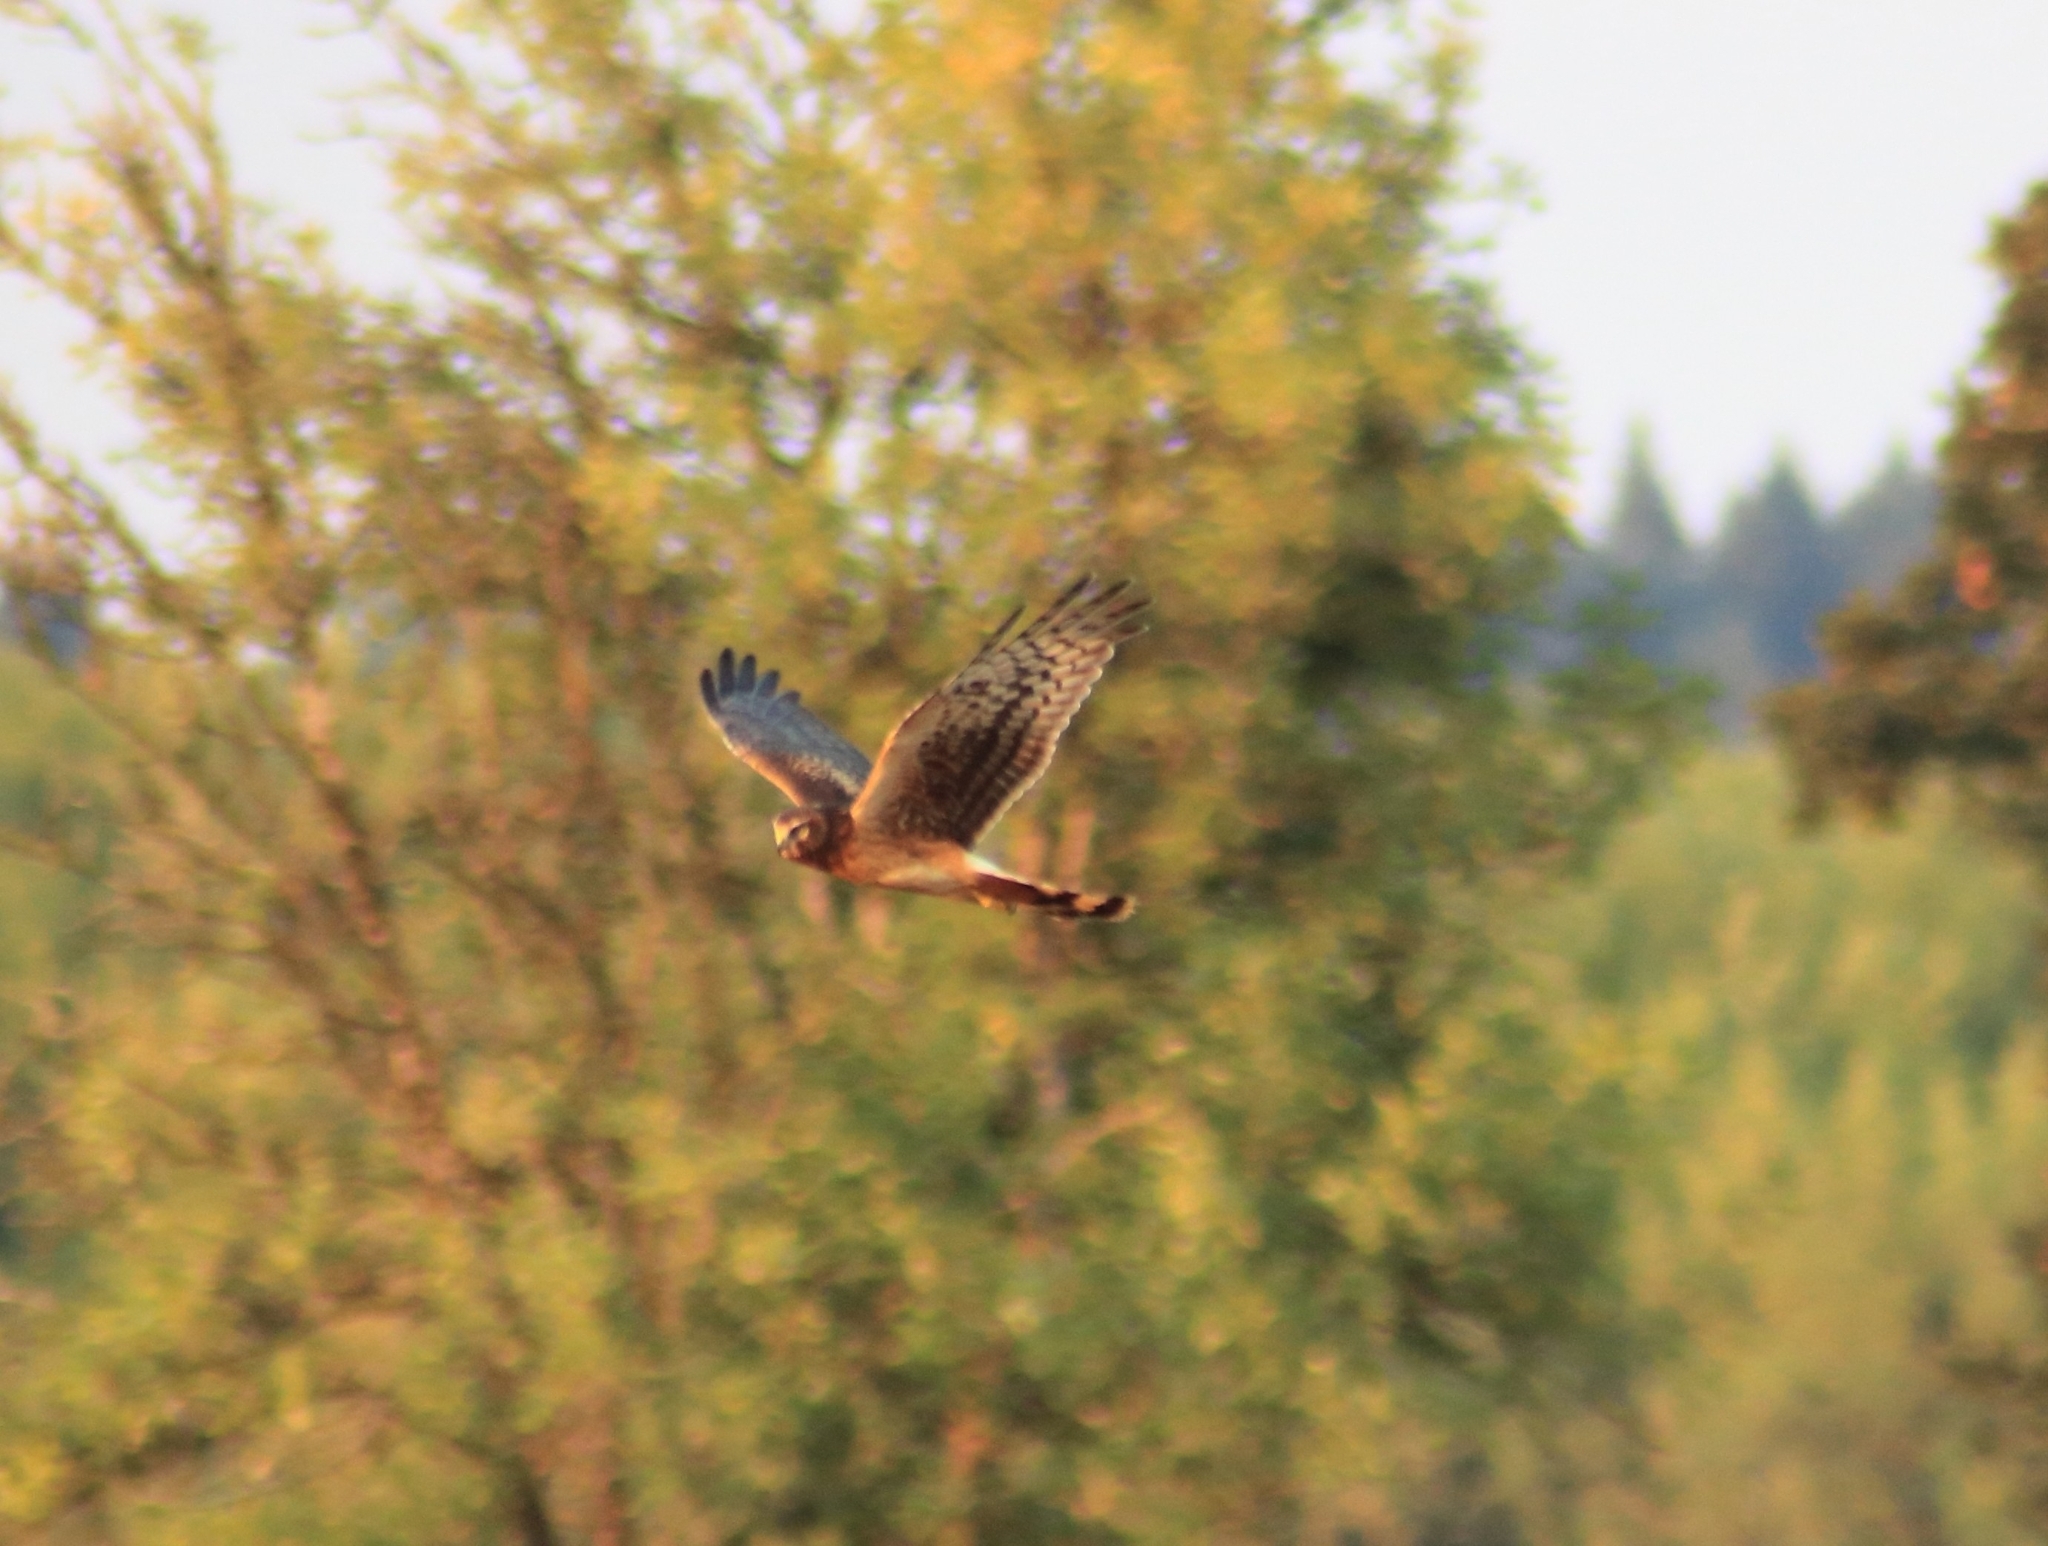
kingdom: Animalia
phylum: Chordata
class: Aves
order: Accipitriformes
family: Accipitridae
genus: Circus
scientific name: Circus cyaneus
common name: Hen harrier
